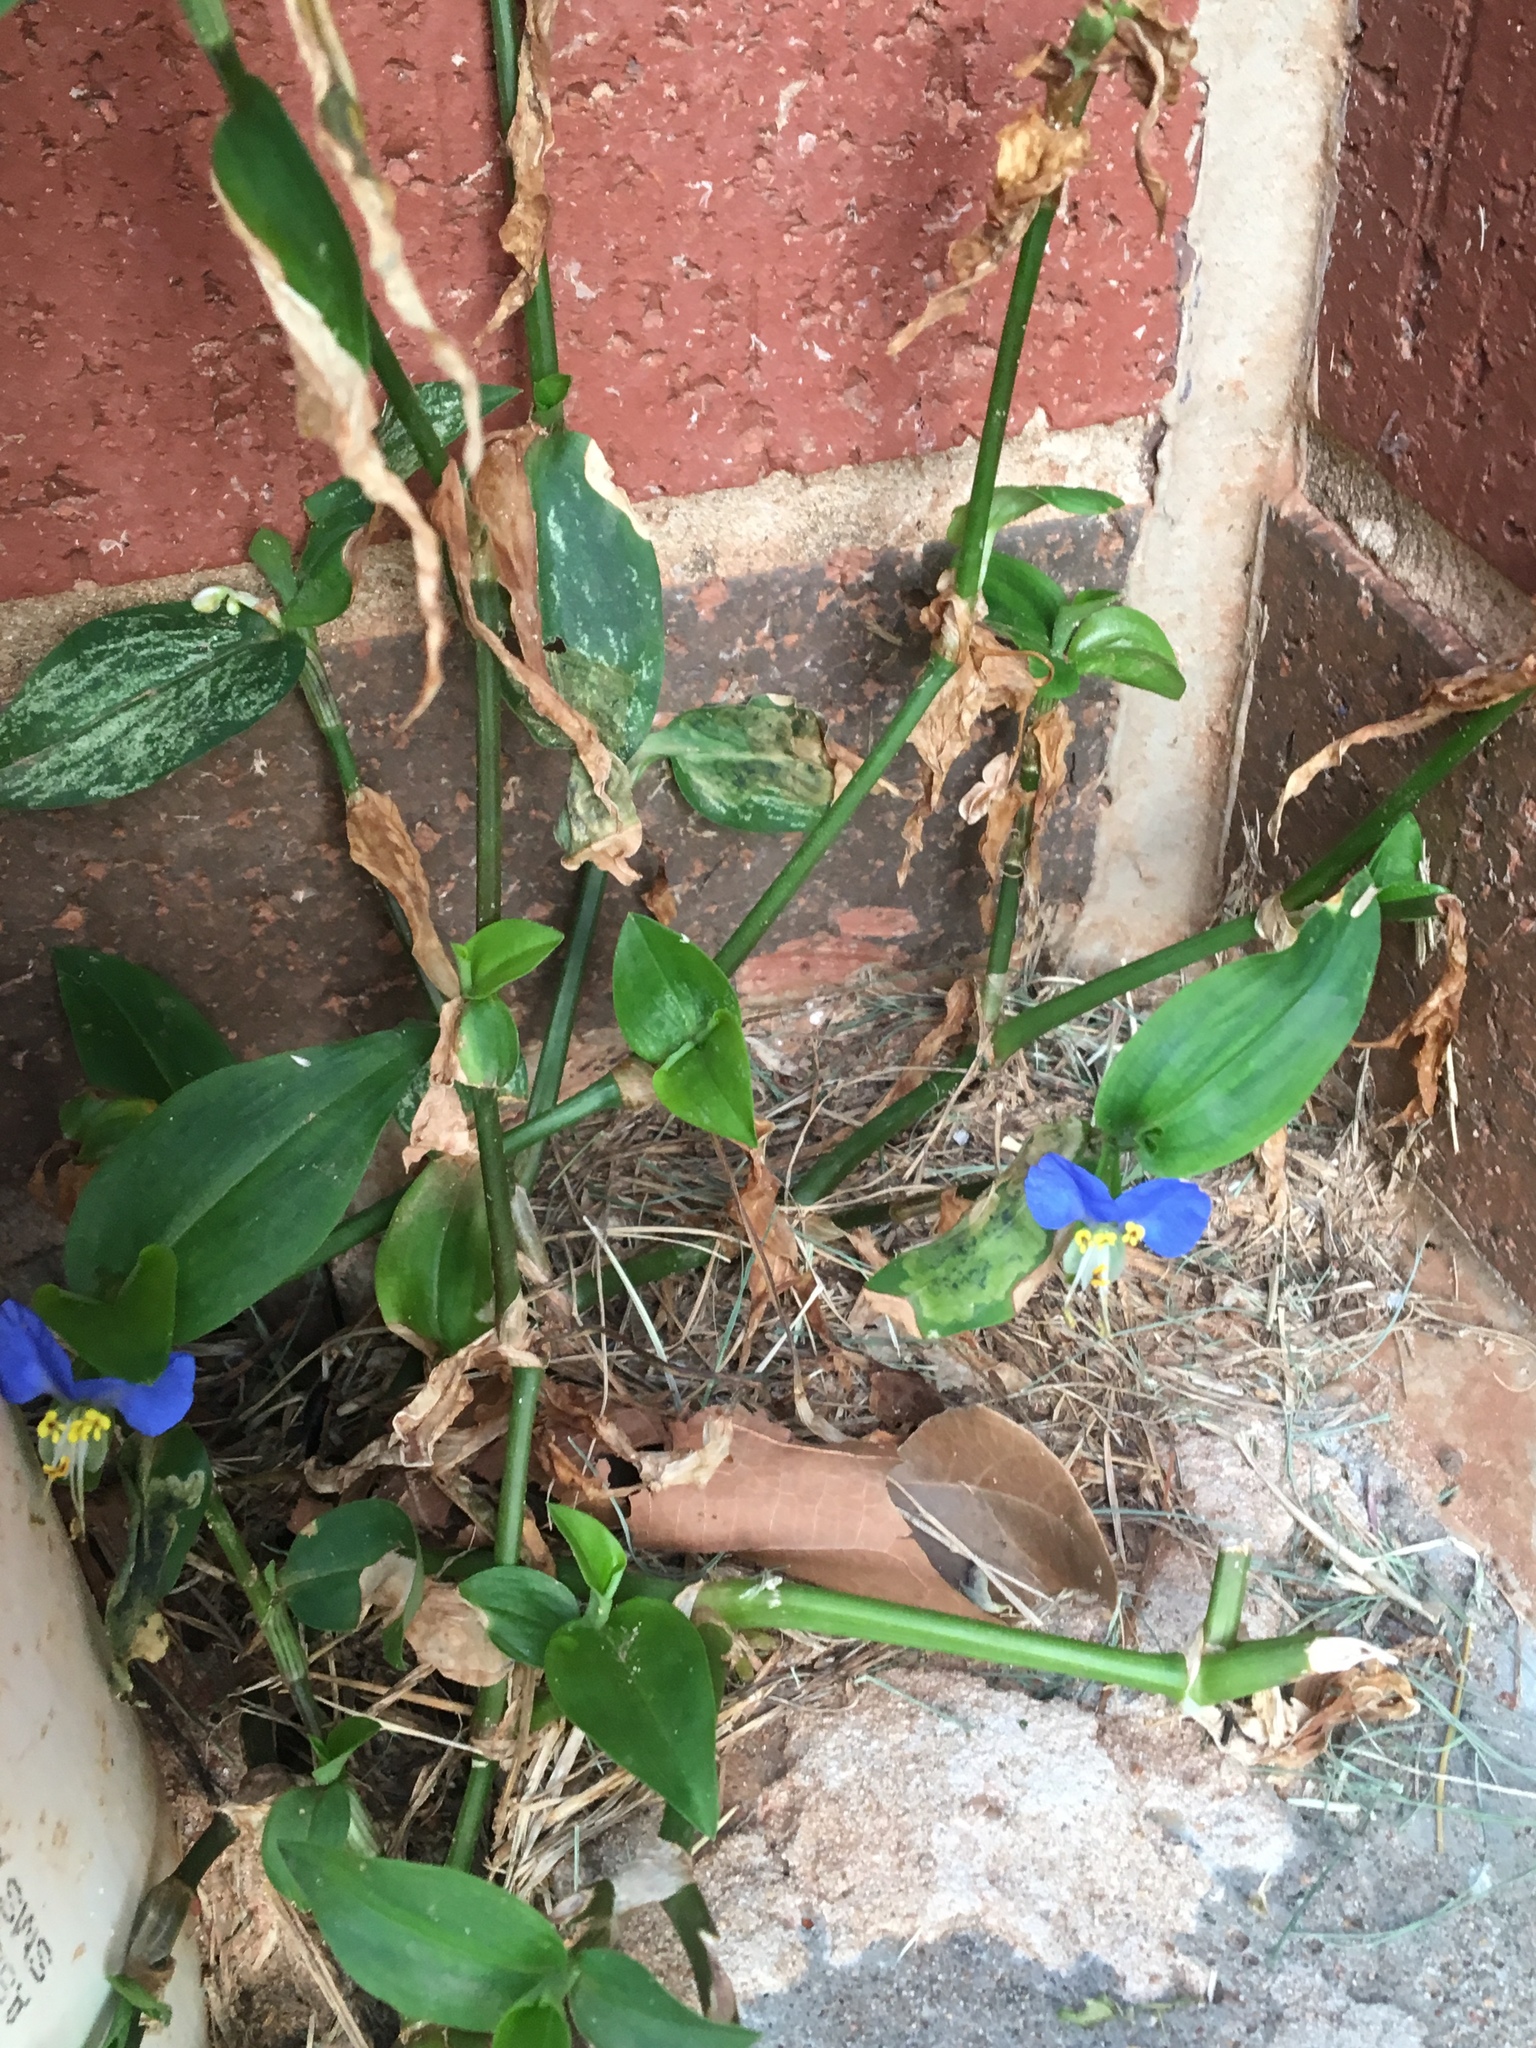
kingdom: Plantae
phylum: Tracheophyta
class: Liliopsida
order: Commelinales
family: Commelinaceae
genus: Commelina
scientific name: Commelina communis
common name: Asiatic dayflower
